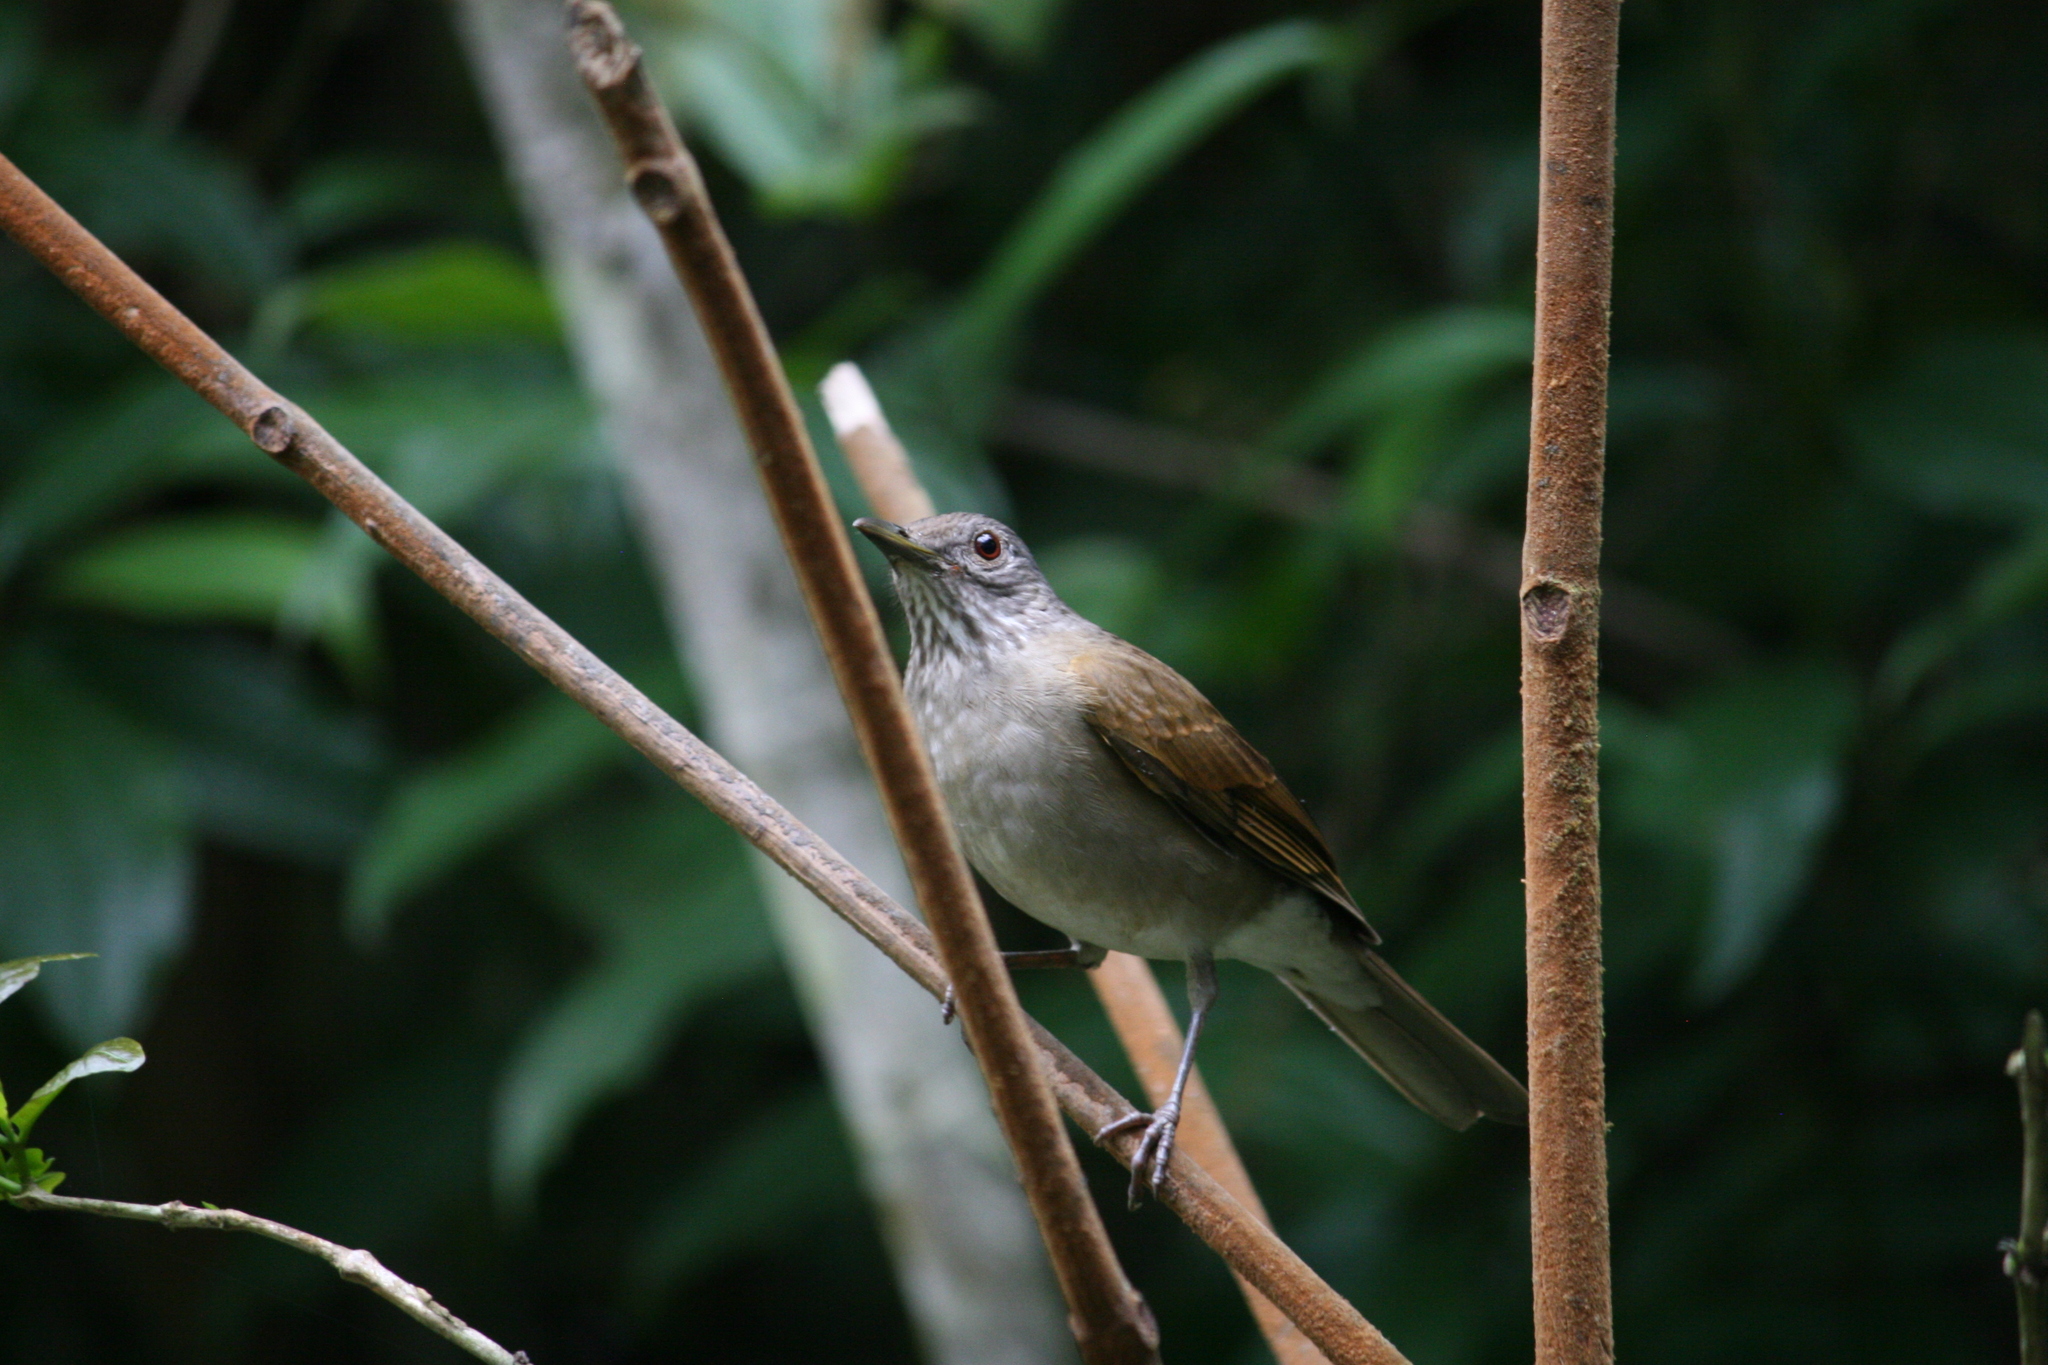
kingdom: Animalia
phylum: Chordata
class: Aves
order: Passeriformes
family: Turdidae
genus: Turdus
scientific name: Turdus leucomelas
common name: Pale-breasted thrush
